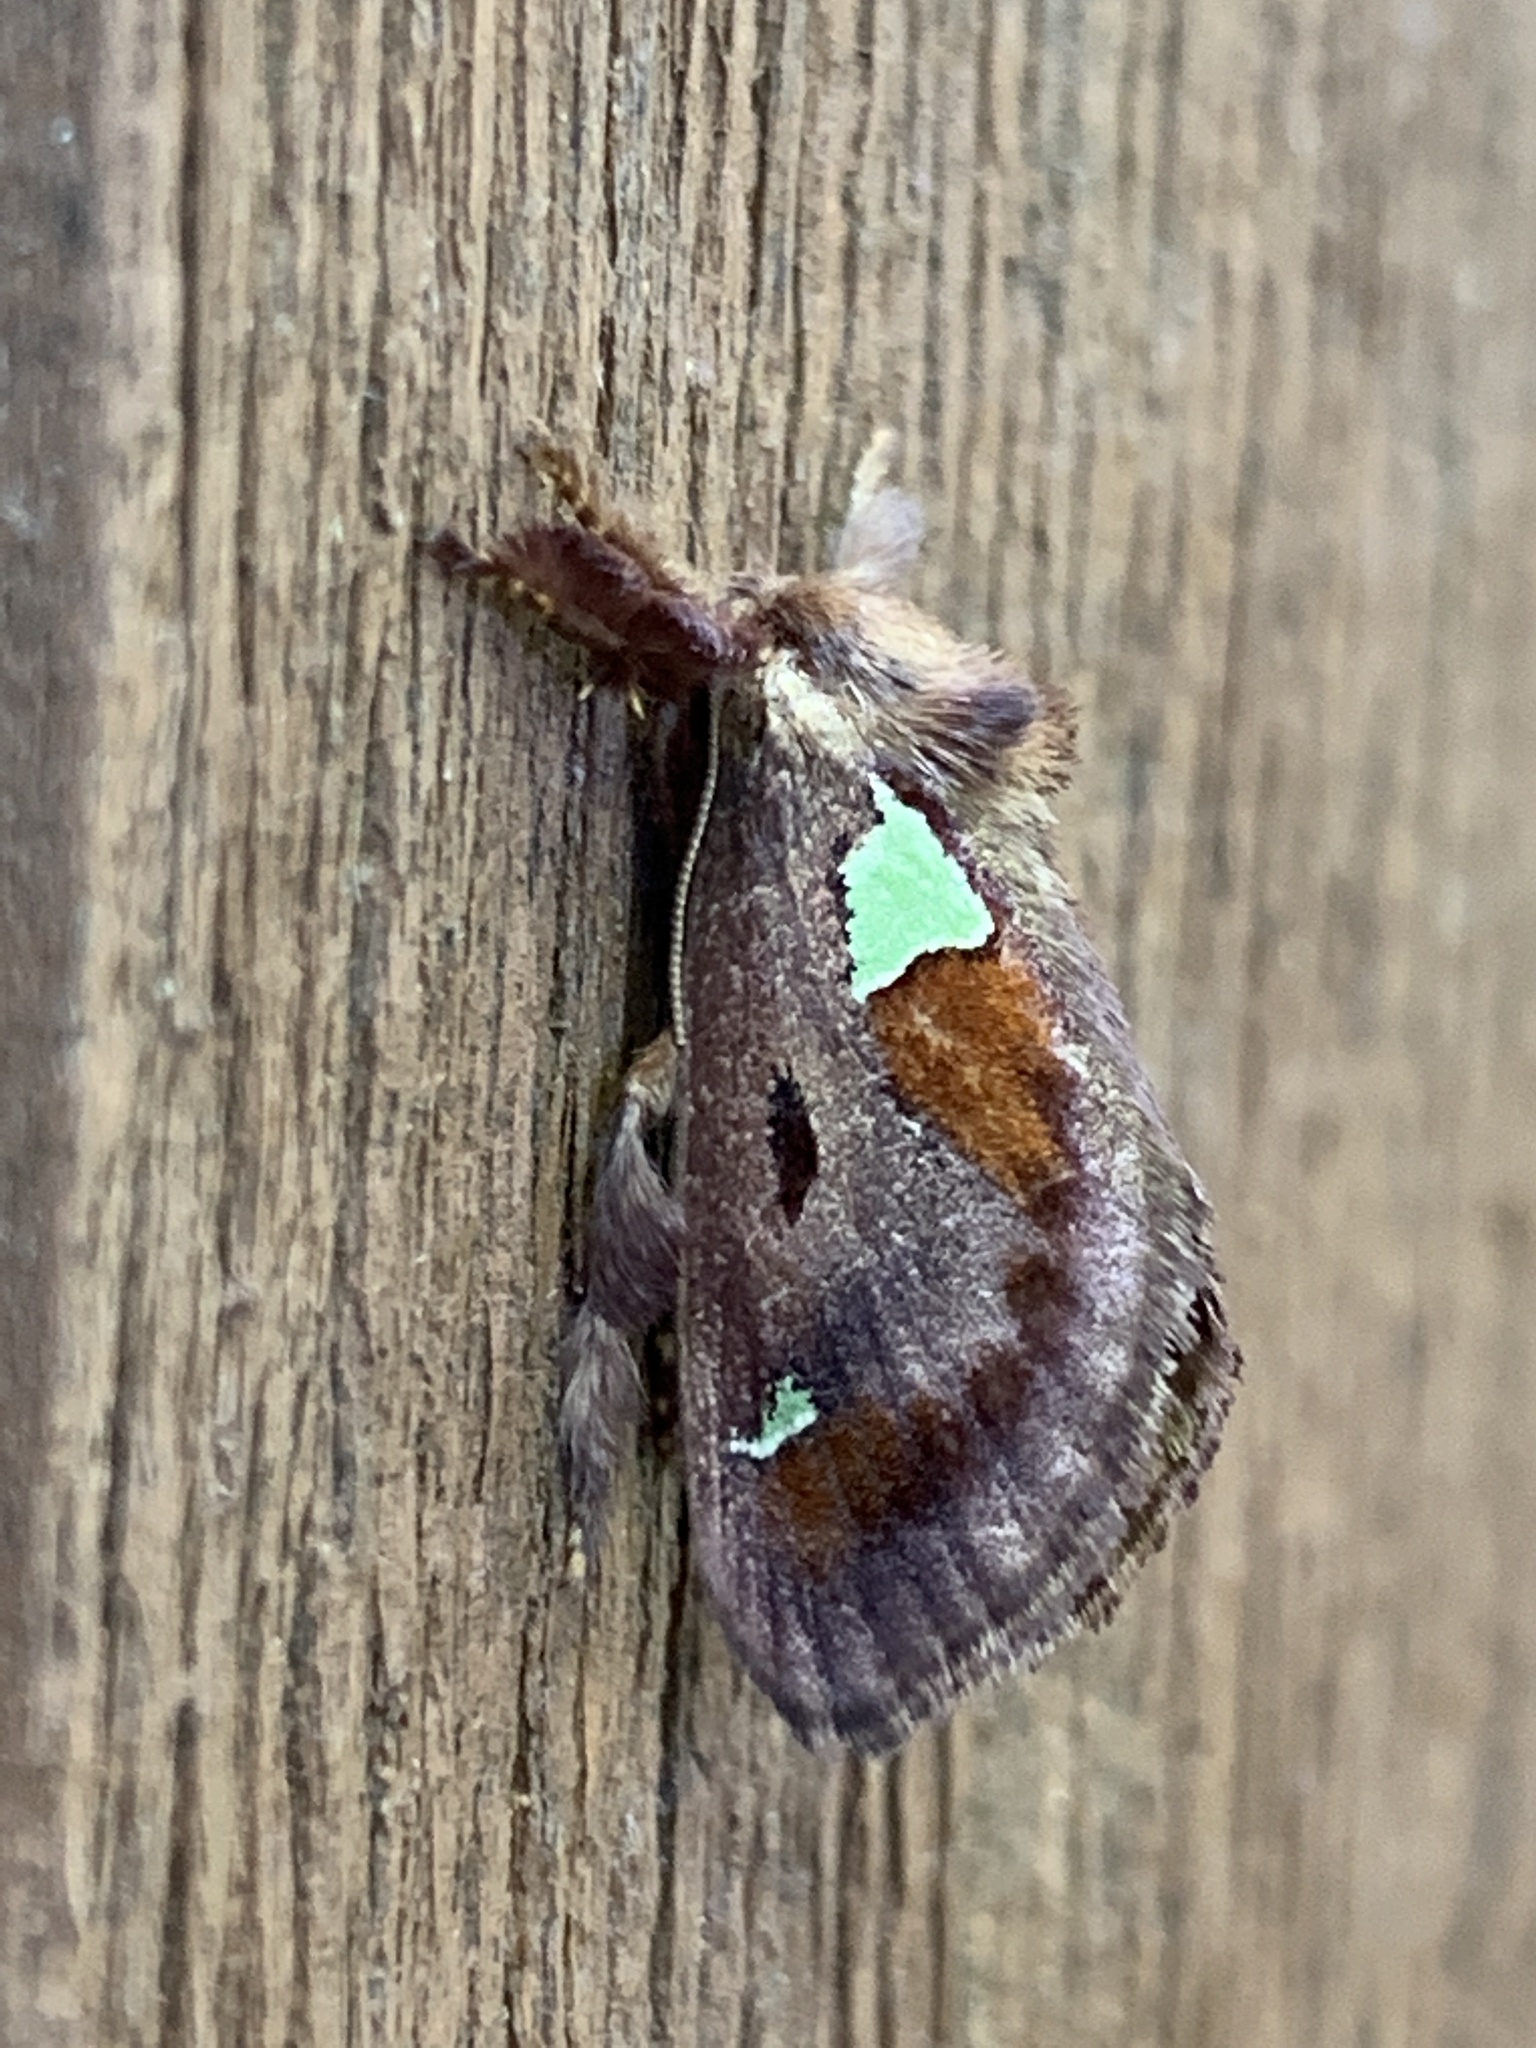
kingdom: Animalia
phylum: Arthropoda
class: Insecta
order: Lepidoptera
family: Limacodidae
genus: Euclea
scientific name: Euclea delphinii
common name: Spiny oak-slug moth
